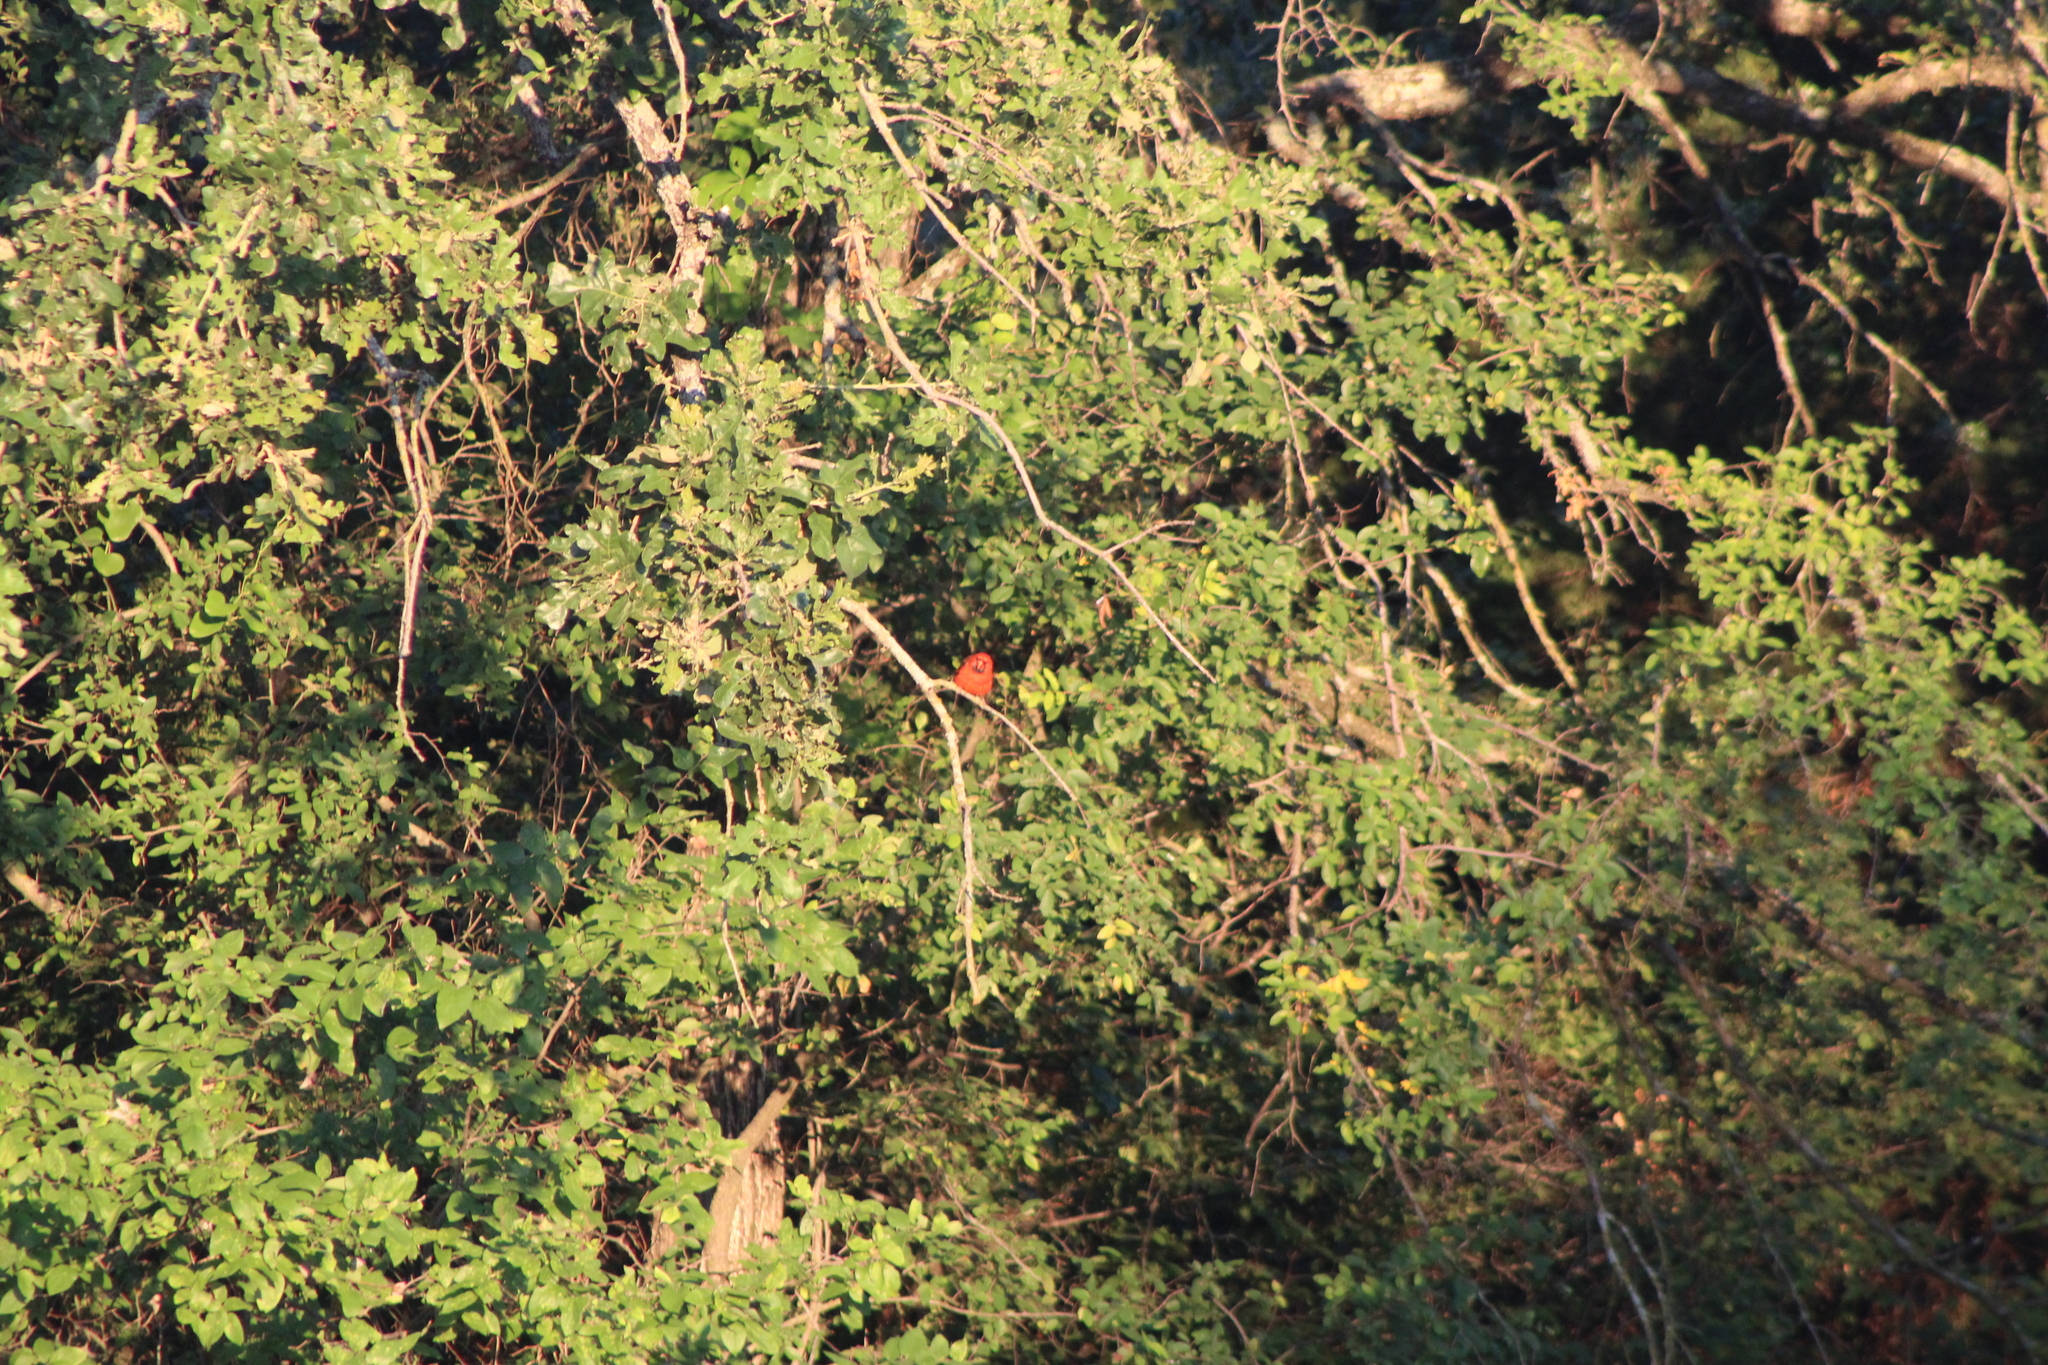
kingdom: Animalia
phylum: Chordata
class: Aves
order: Passeriformes
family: Cardinalidae
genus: Cardinalis
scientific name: Cardinalis cardinalis
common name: Northern cardinal
